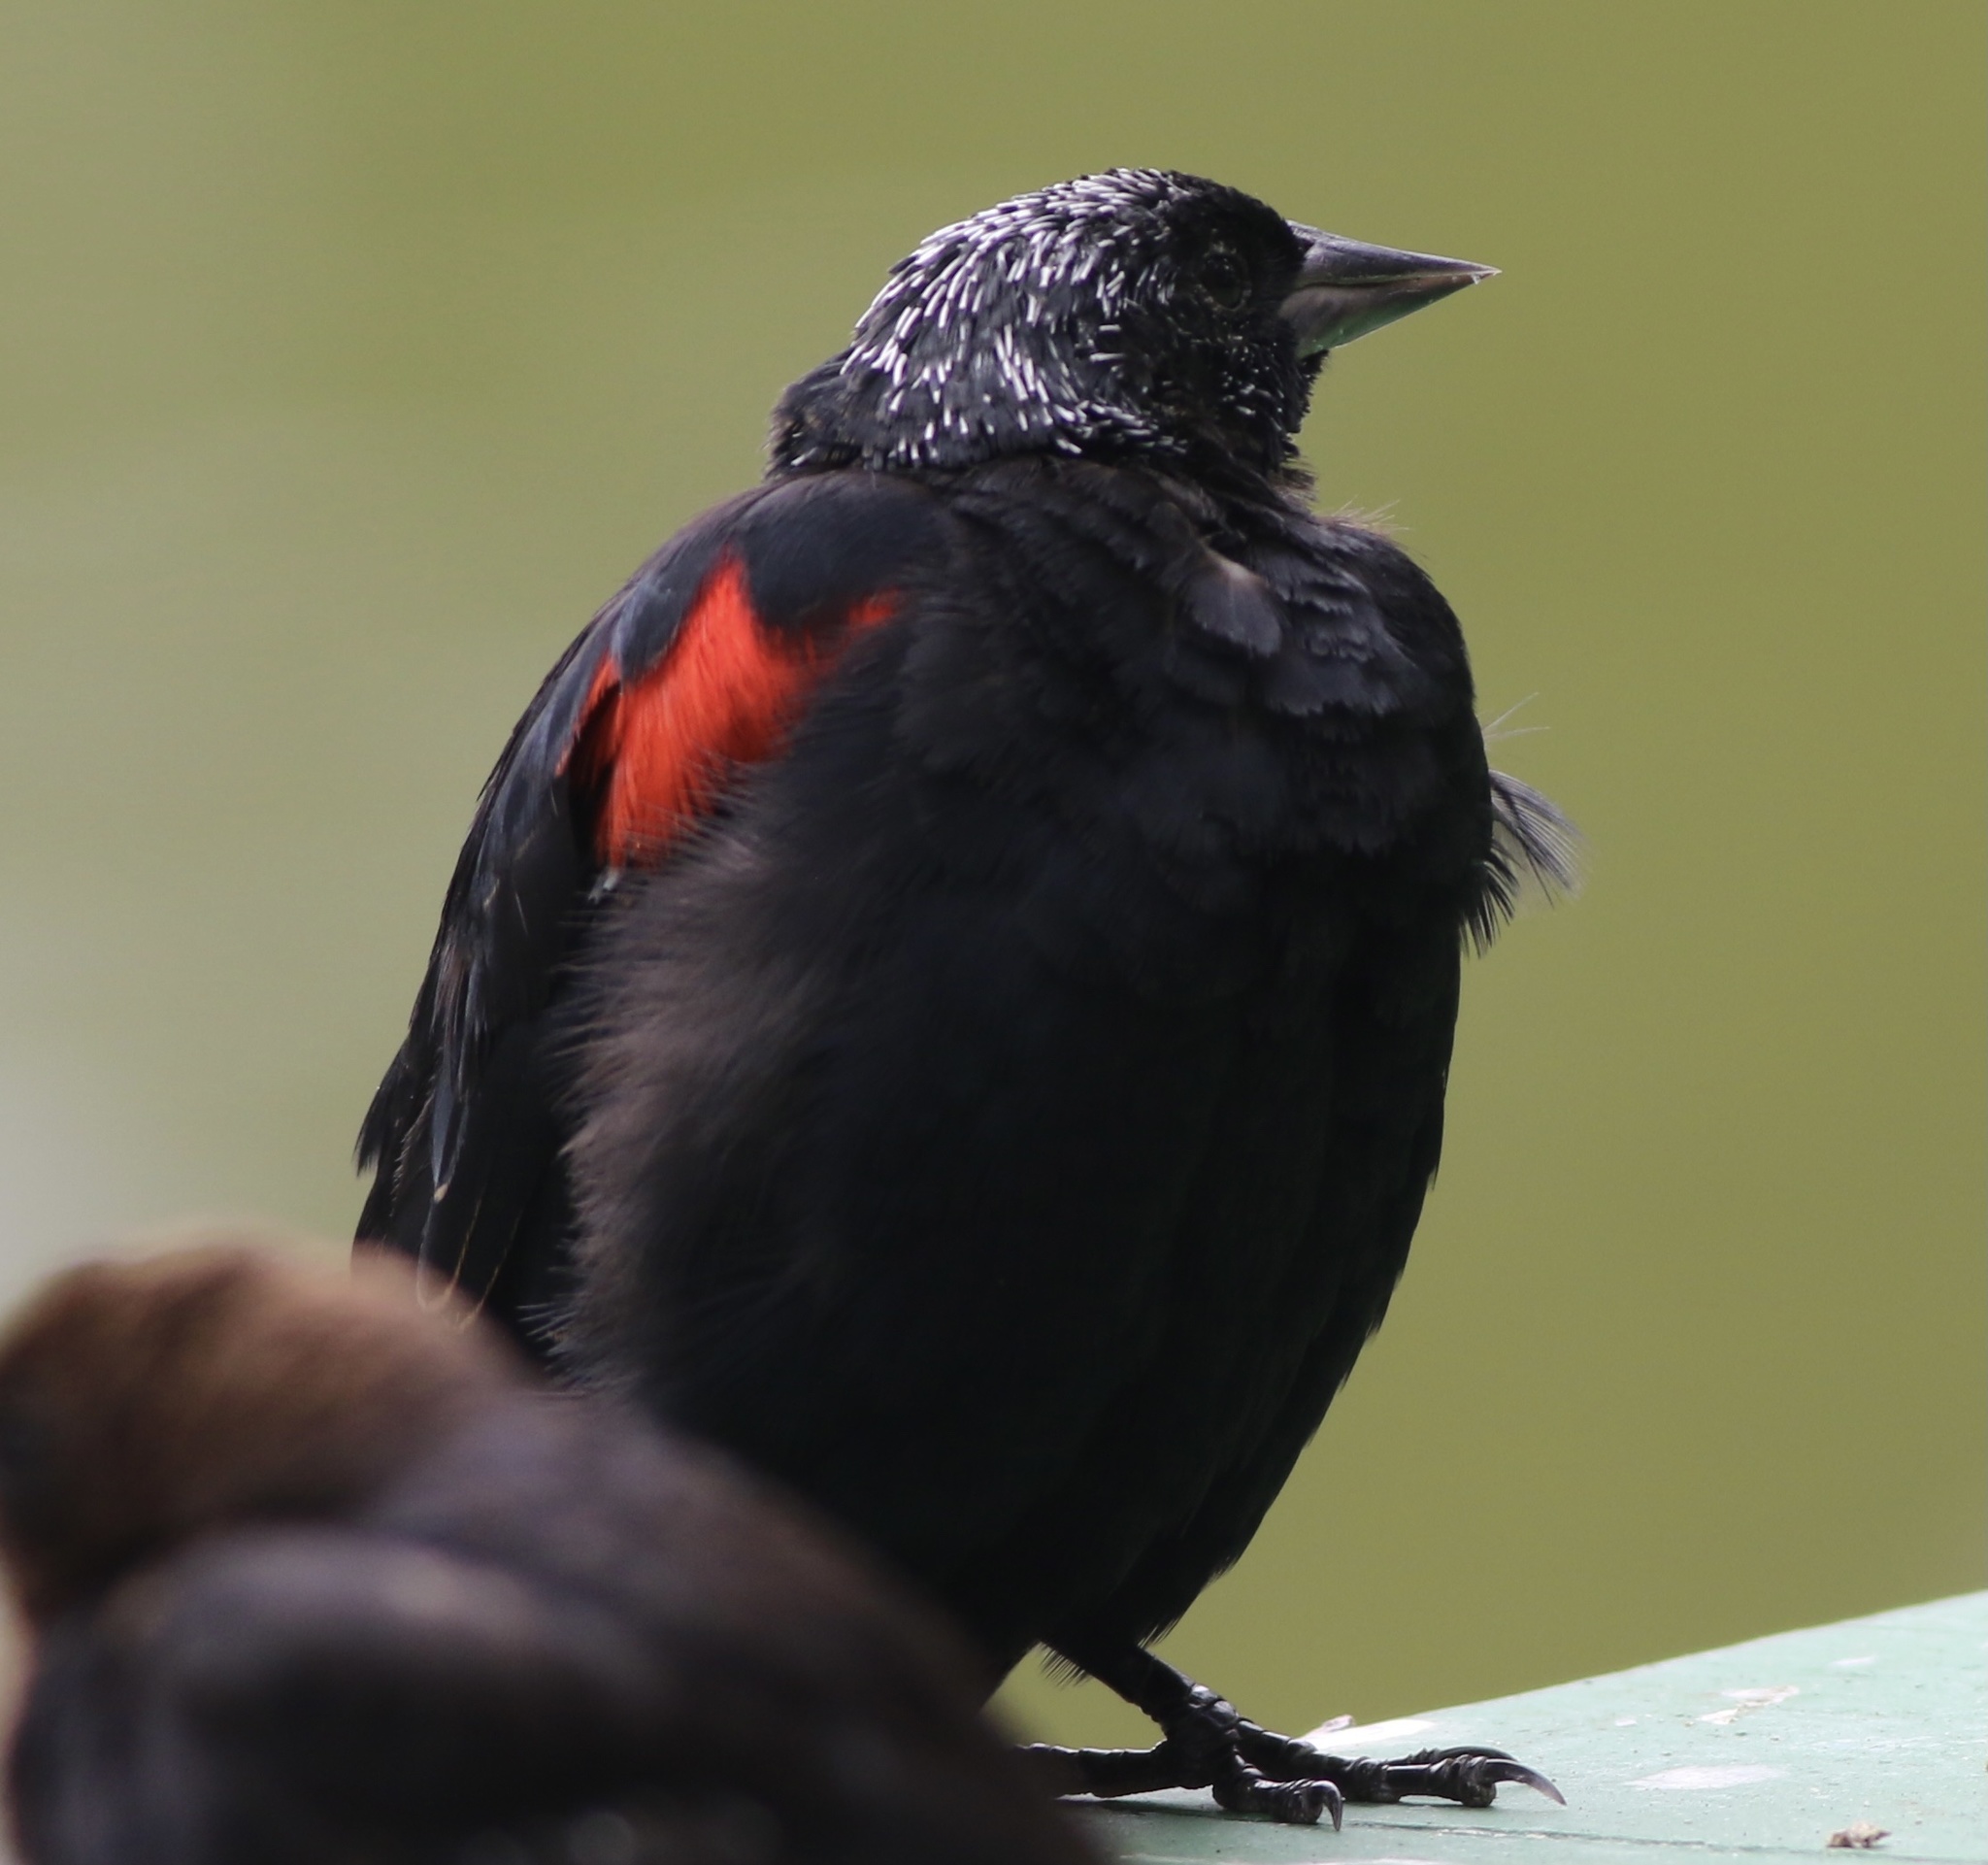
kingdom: Animalia
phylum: Chordata
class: Aves
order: Passeriformes
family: Icteridae
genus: Agelaius
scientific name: Agelaius phoeniceus
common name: Red-winged blackbird
